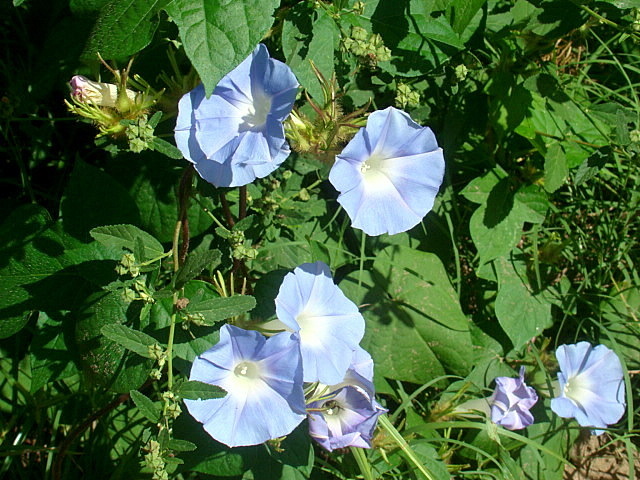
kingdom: Plantae
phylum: Tracheophyta
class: Magnoliopsida
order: Solanales
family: Convolvulaceae
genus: Ipomoea
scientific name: Ipomoea nil
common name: Japanese morning-glory
